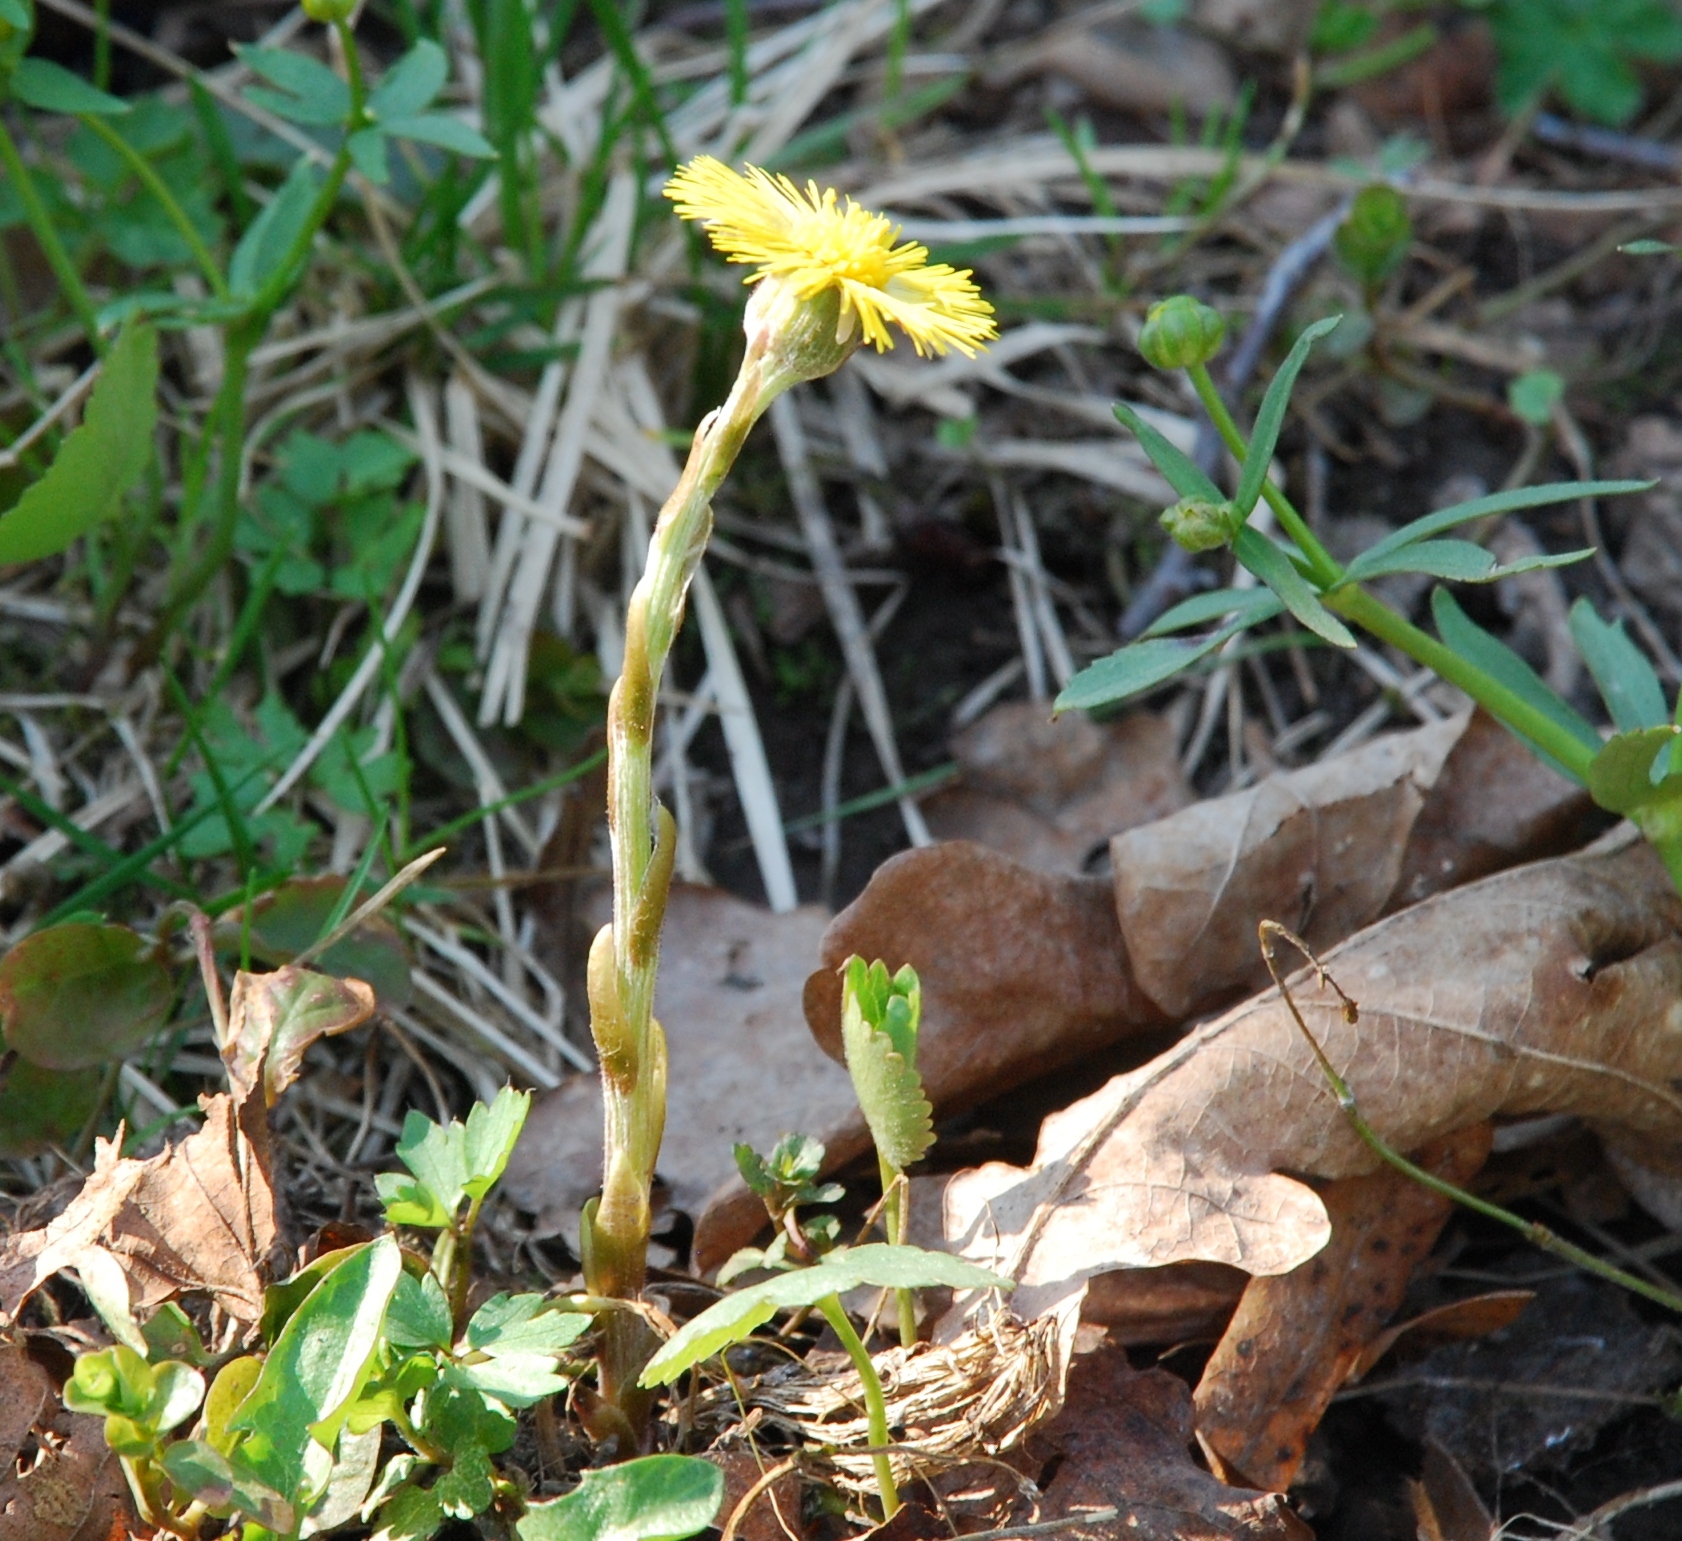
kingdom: Plantae
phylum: Tracheophyta
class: Magnoliopsida
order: Asterales
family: Asteraceae
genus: Tussilago
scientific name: Tussilago farfara
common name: Coltsfoot
